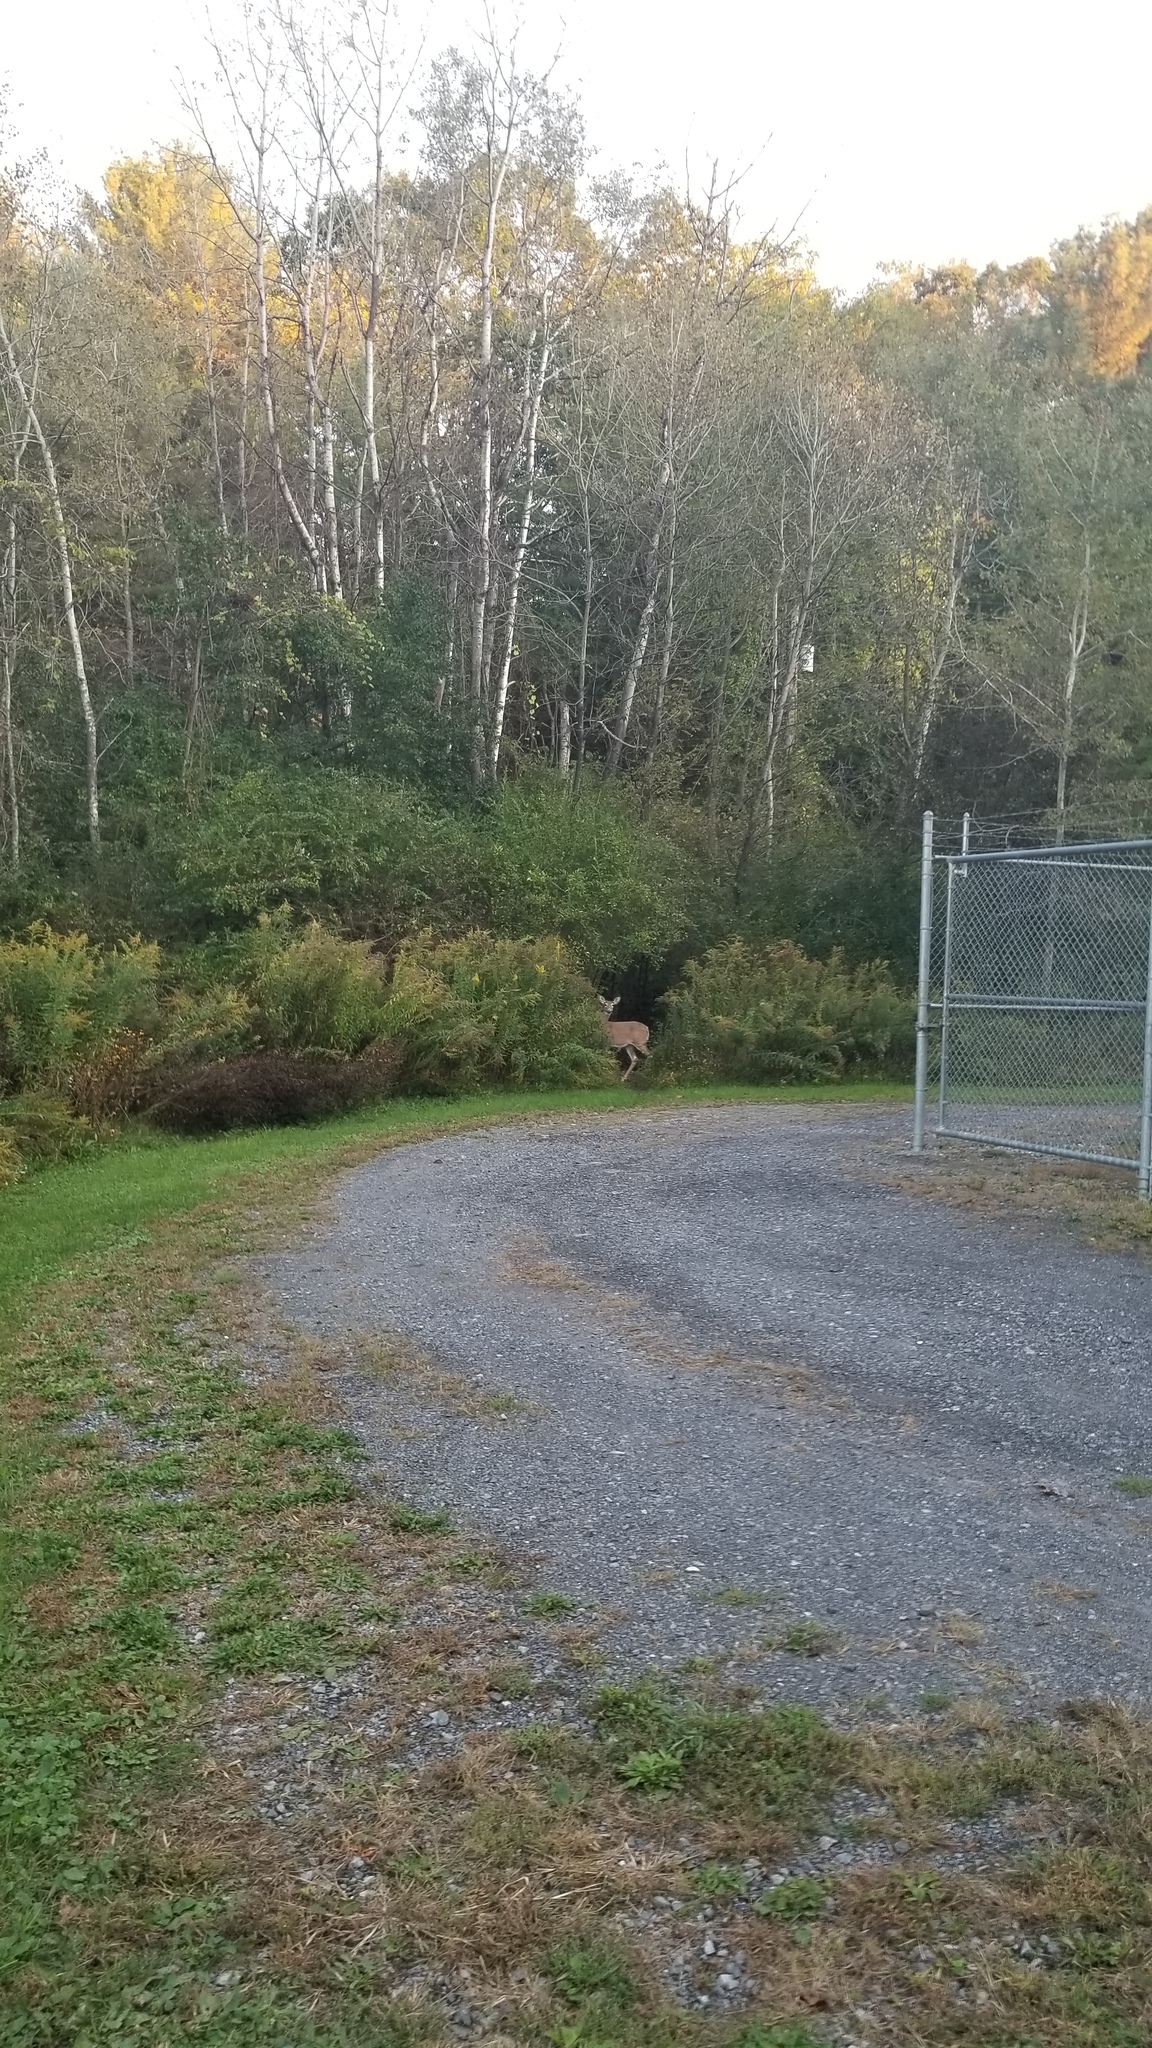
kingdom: Animalia
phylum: Chordata
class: Mammalia
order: Artiodactyla
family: Cervidae
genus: Odocoileus
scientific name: Odocoileus virginianus
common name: White-tailed deer
